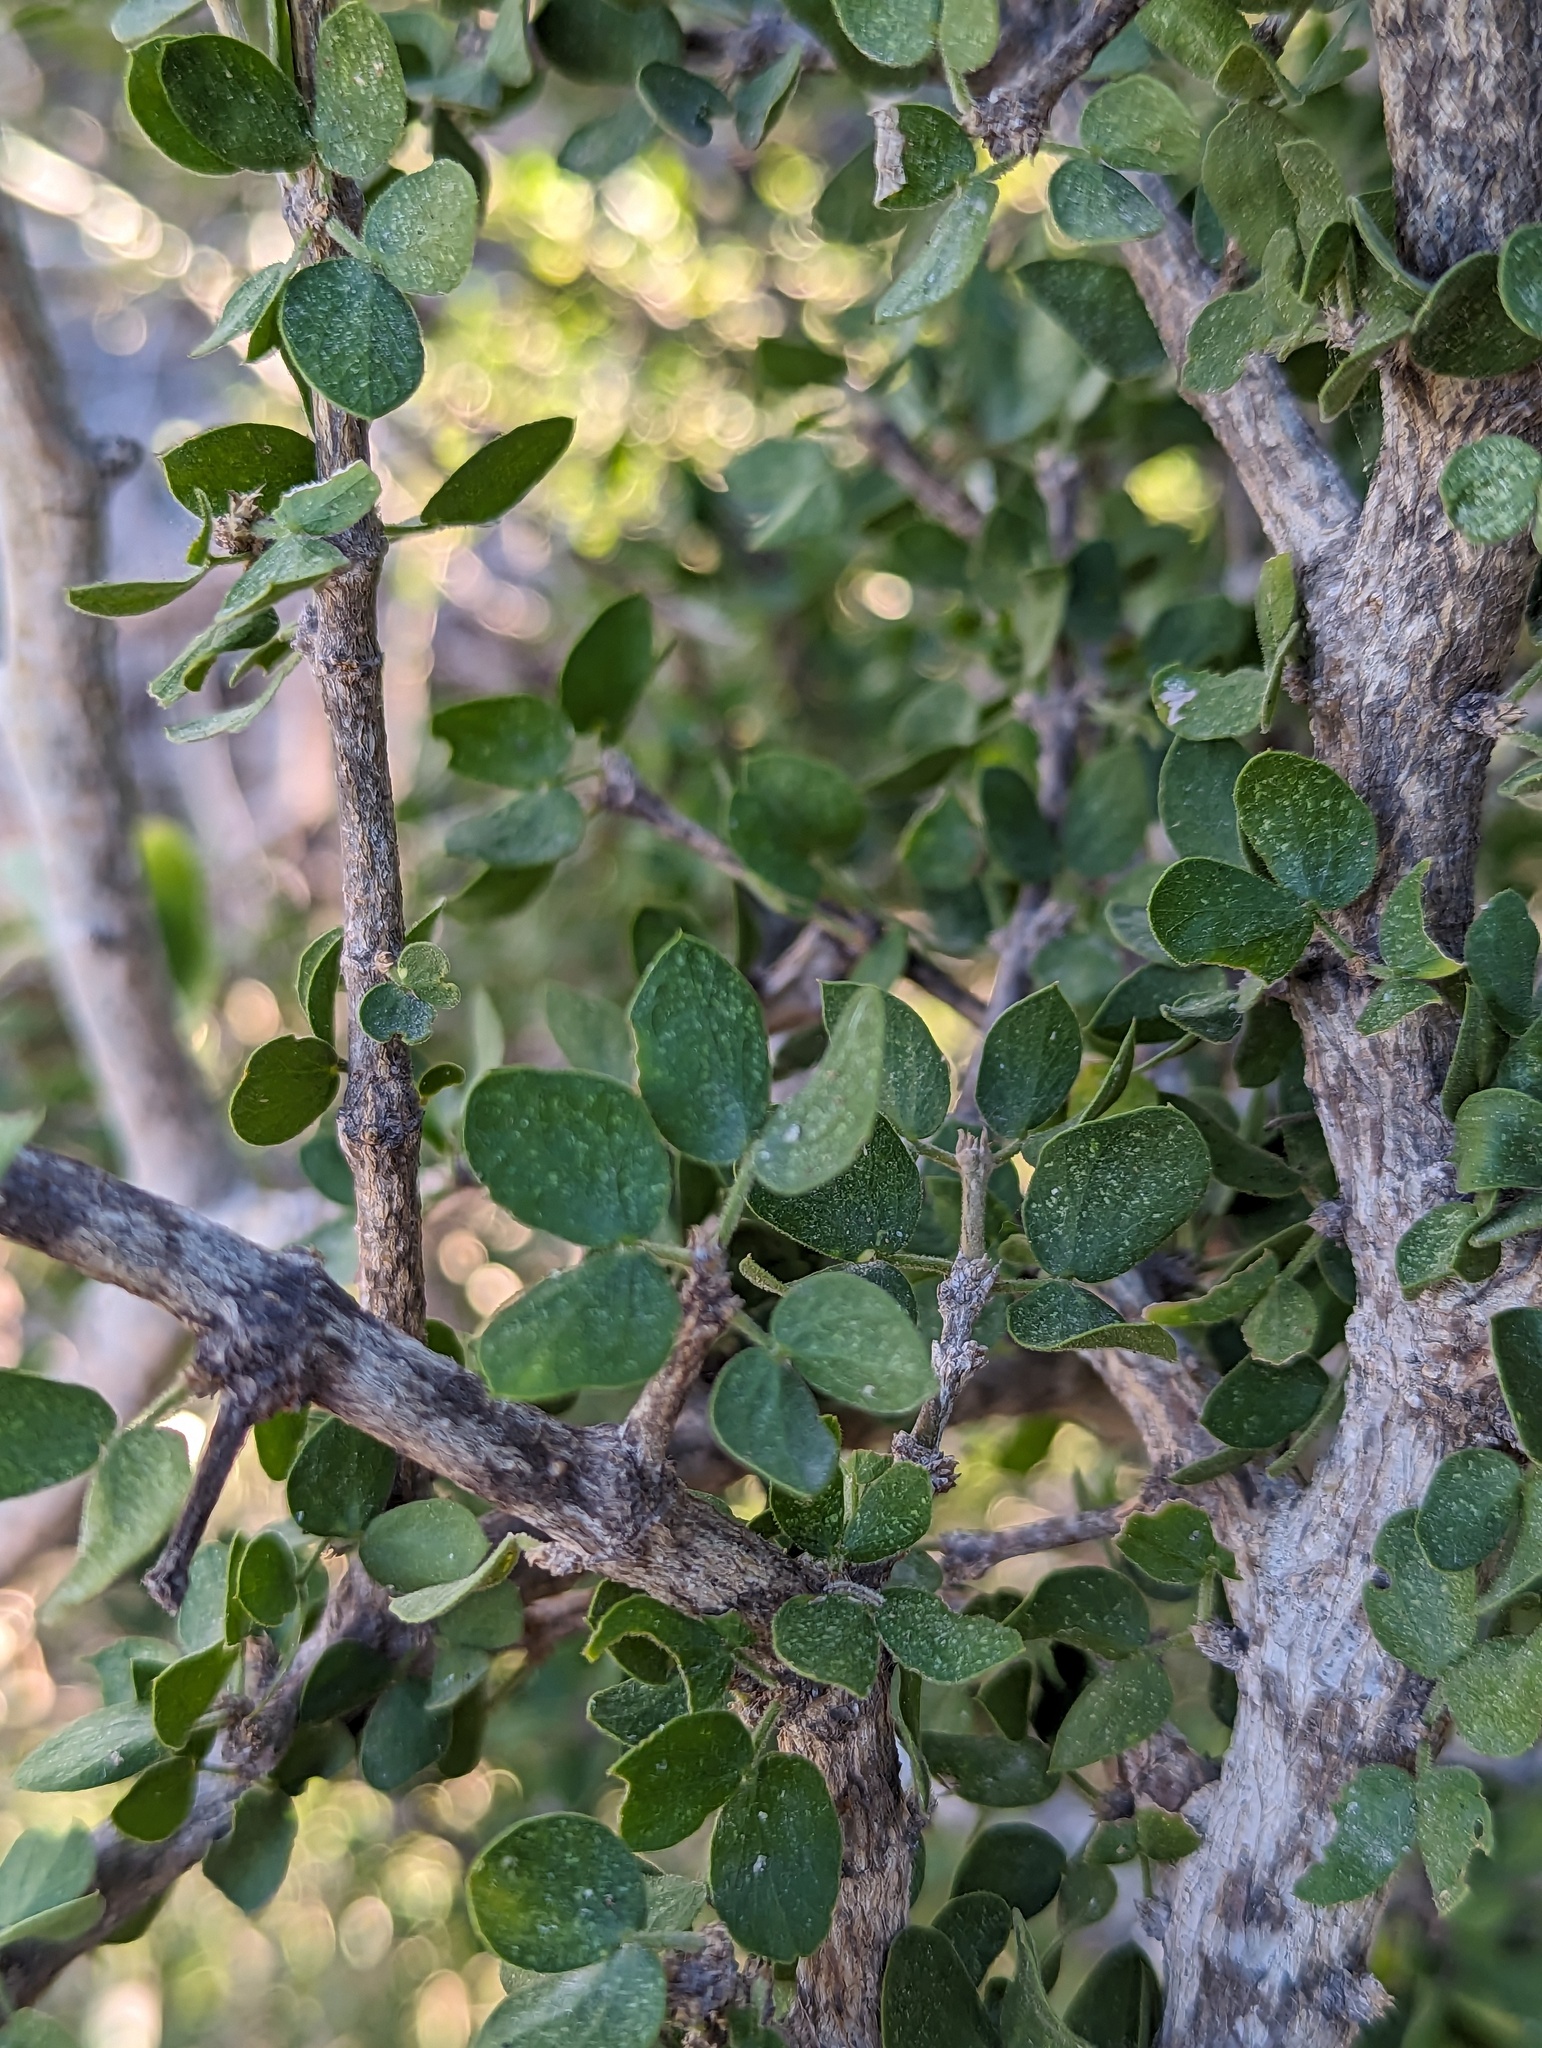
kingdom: Plantae
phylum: Tracheophyta
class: Magnoliopsida
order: Zygophyllales
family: Zygophyllaceae
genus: Guaiacum
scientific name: Guaiacum unijugum
